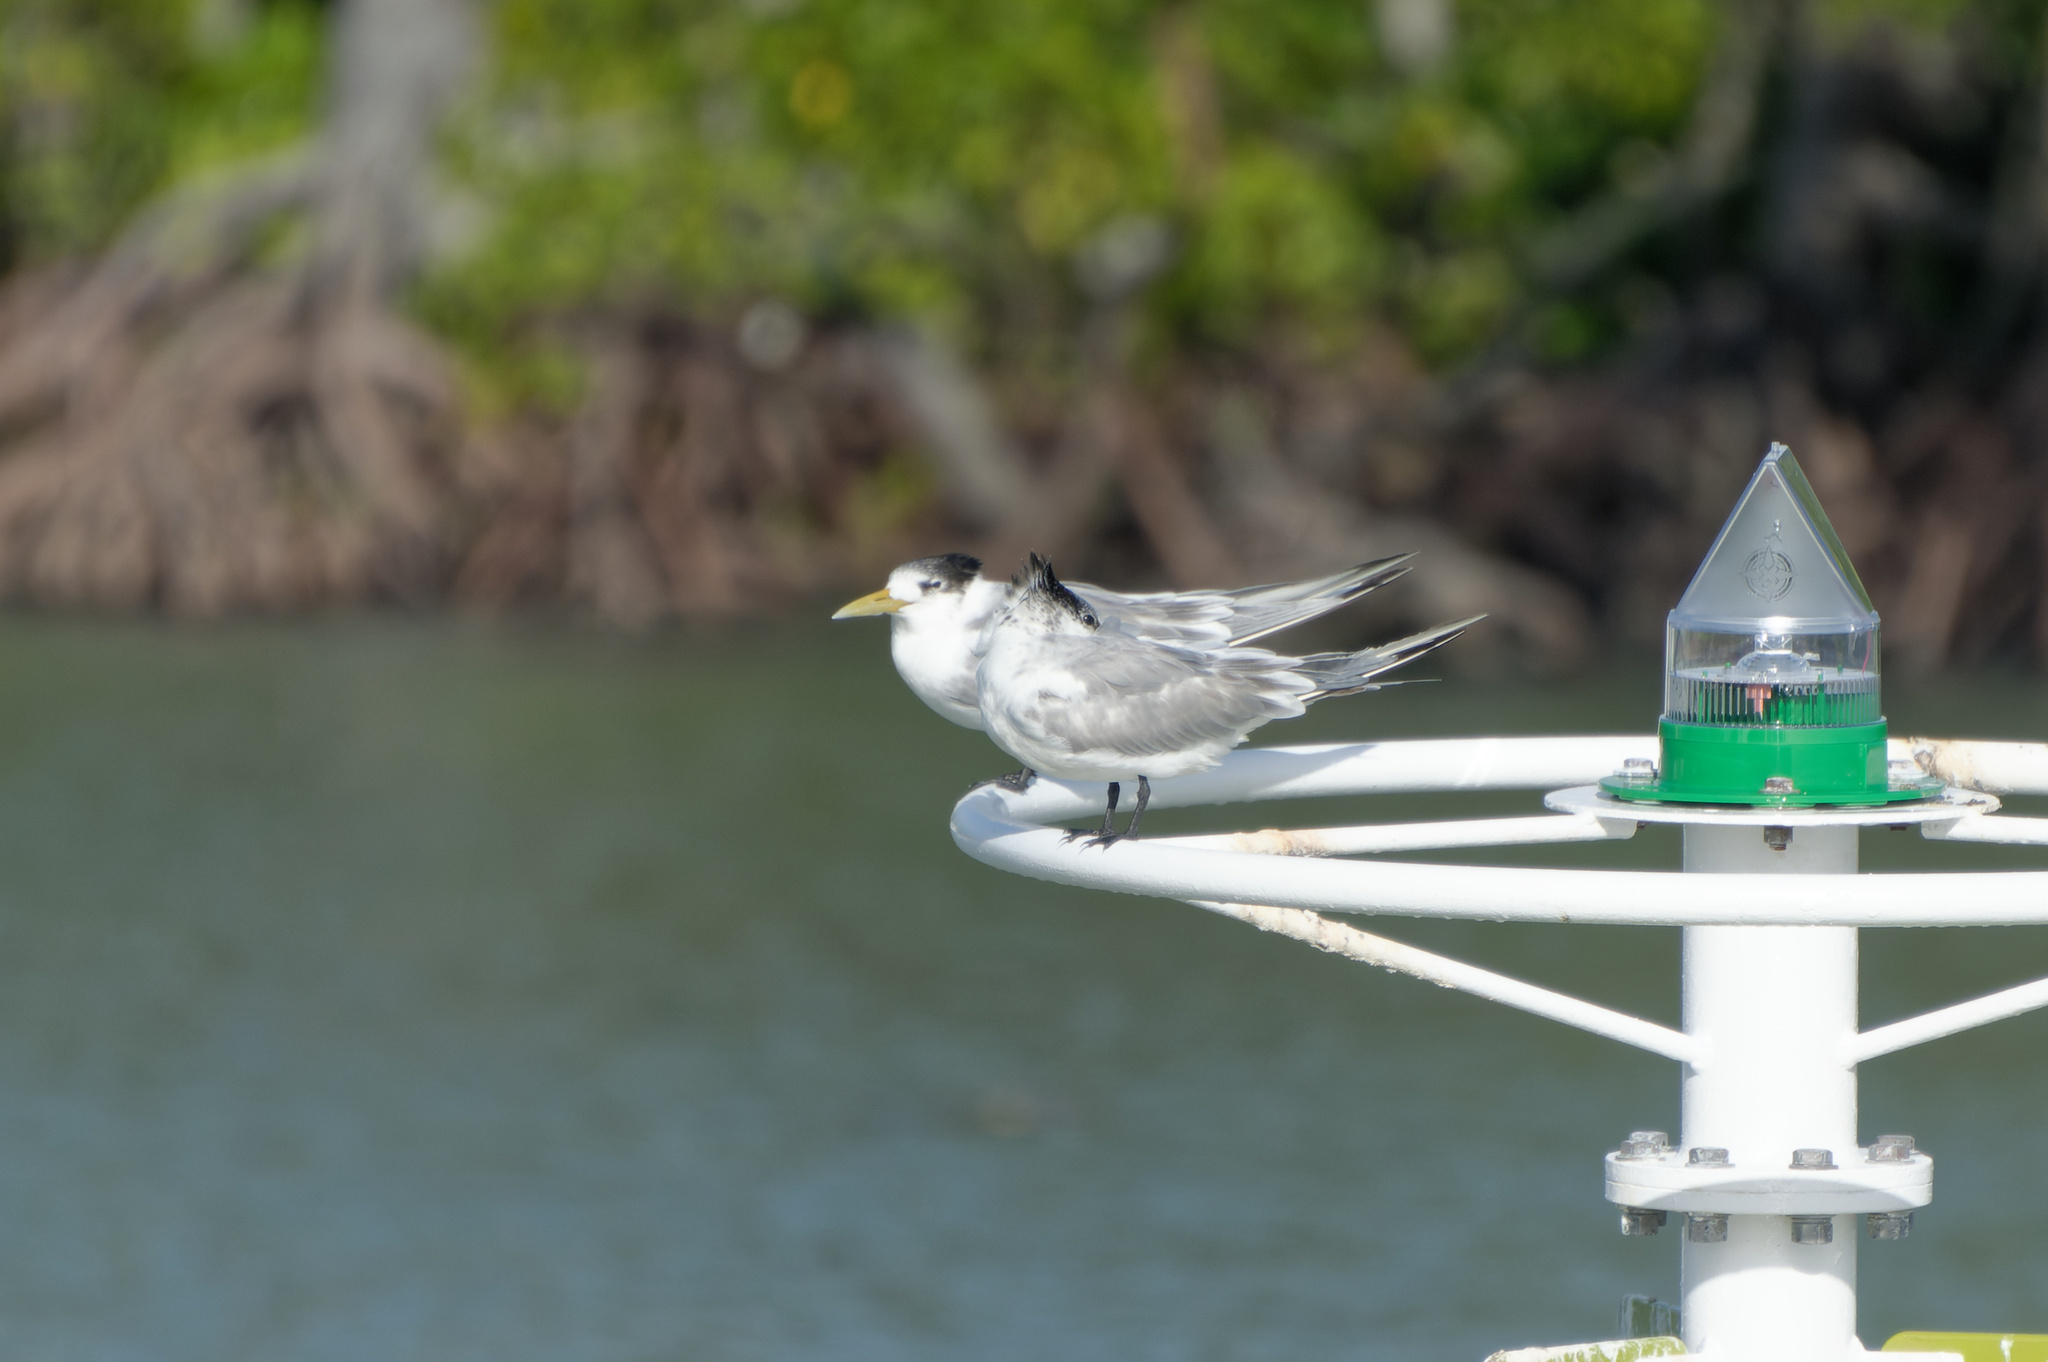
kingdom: Animalia
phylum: Chordata
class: Aves
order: Charadriiformes
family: Laridae
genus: Thalasseus
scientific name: Thalasseus bergii
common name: Greater crested tern
